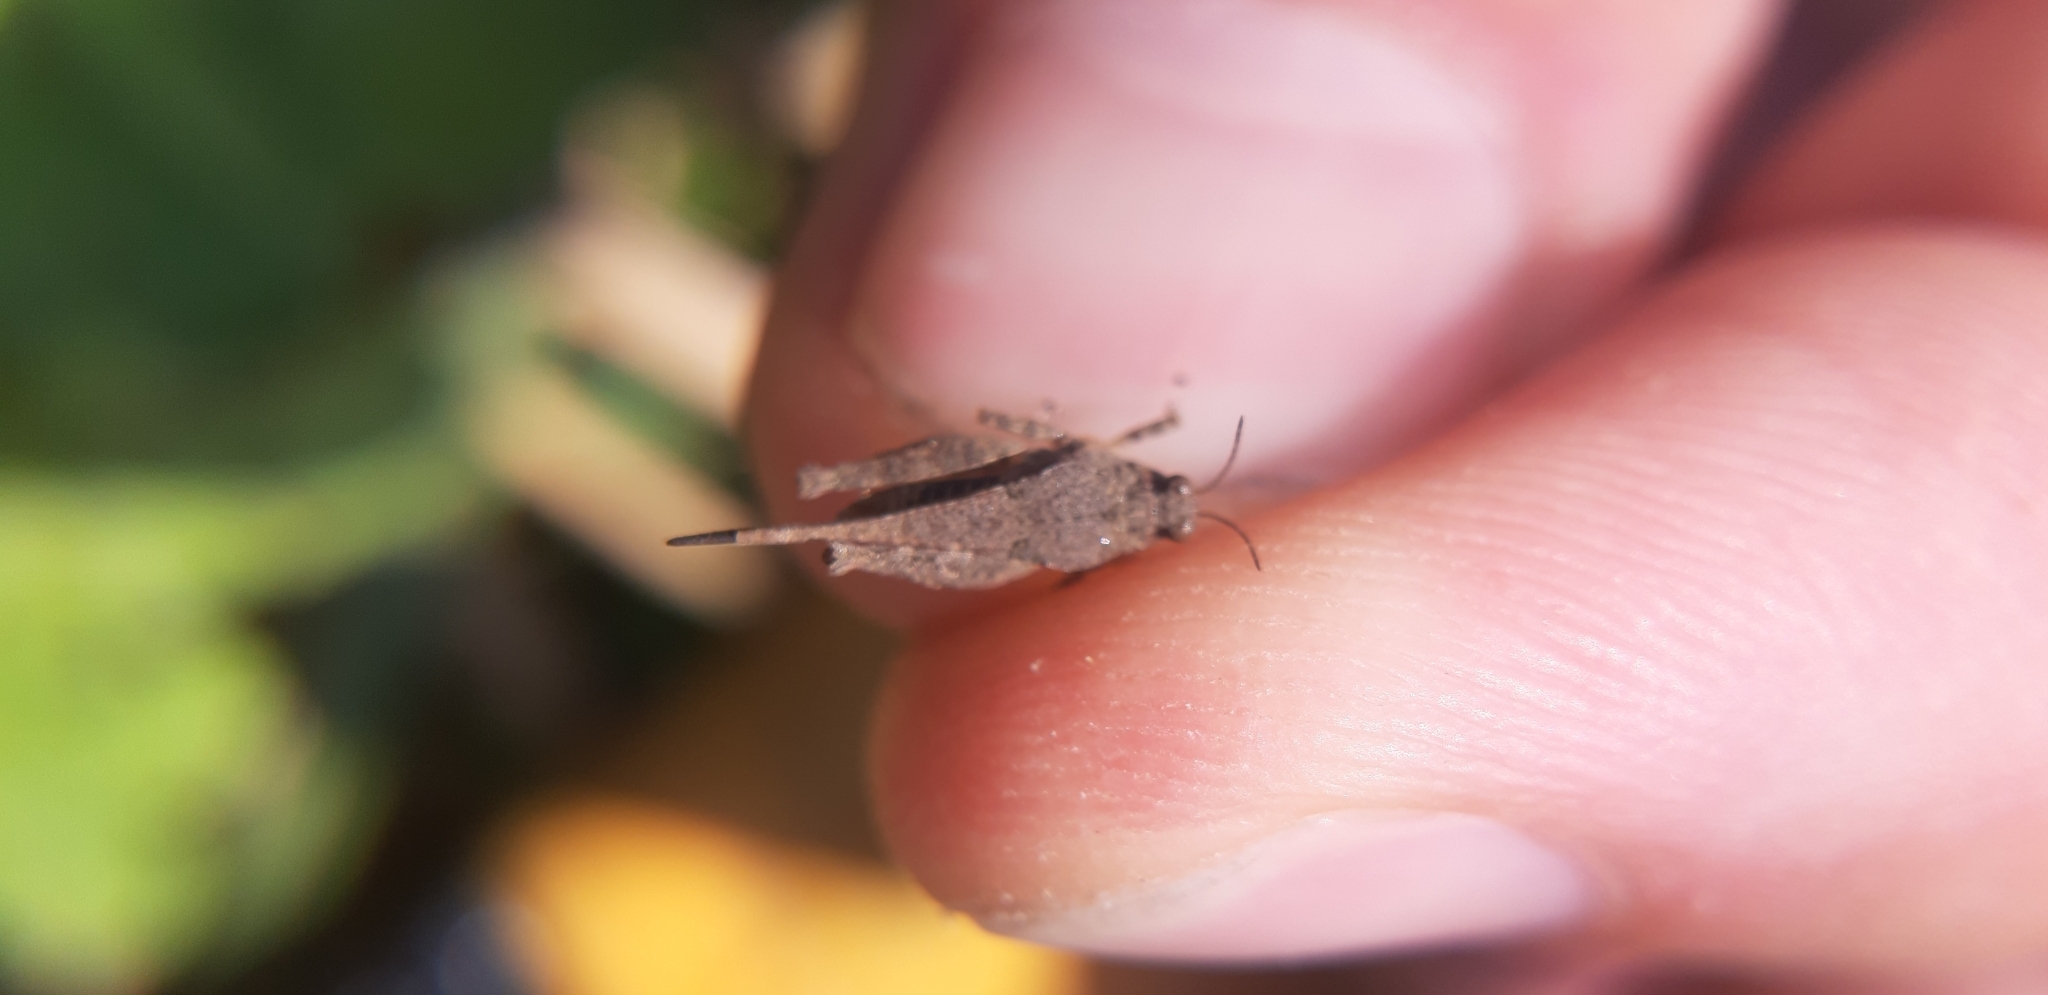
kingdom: Animalia
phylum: Arthropoda
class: Insecta
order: Orthoptera
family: Tetrigidae
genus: Tetrix
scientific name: Tetrix subulata
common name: Slender ground-hopper
